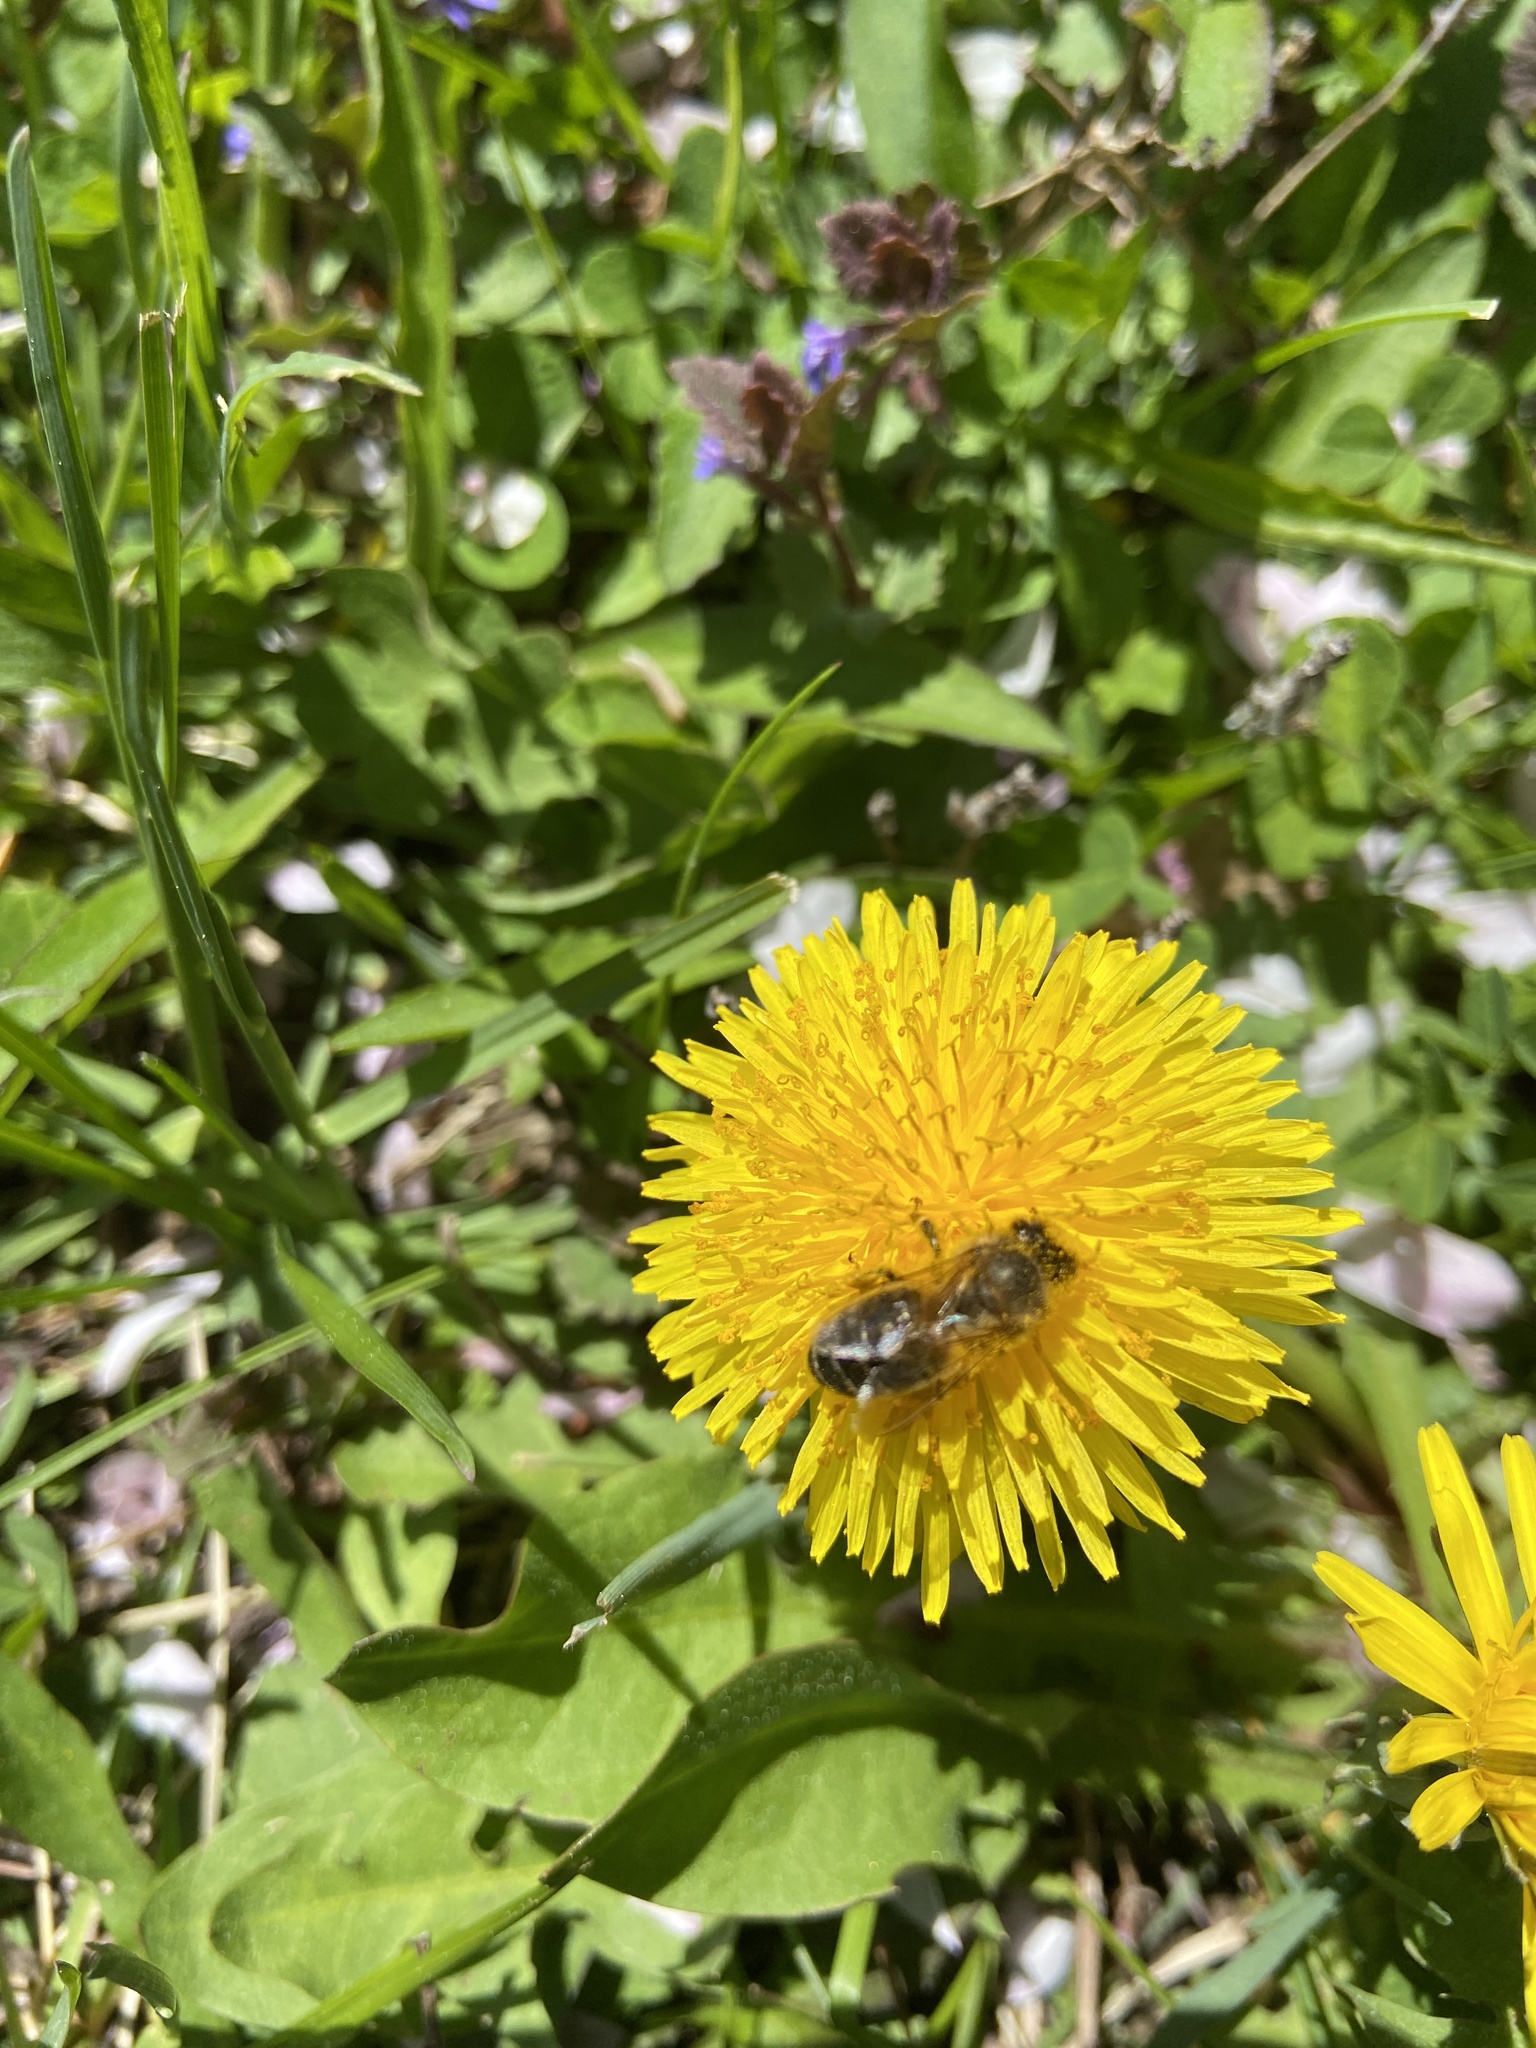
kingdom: Animalia
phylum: Arthropoda
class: Insecta
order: Hymenoptera
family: Apidae
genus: Apis
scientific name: Apis mellifera
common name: Honey bee
